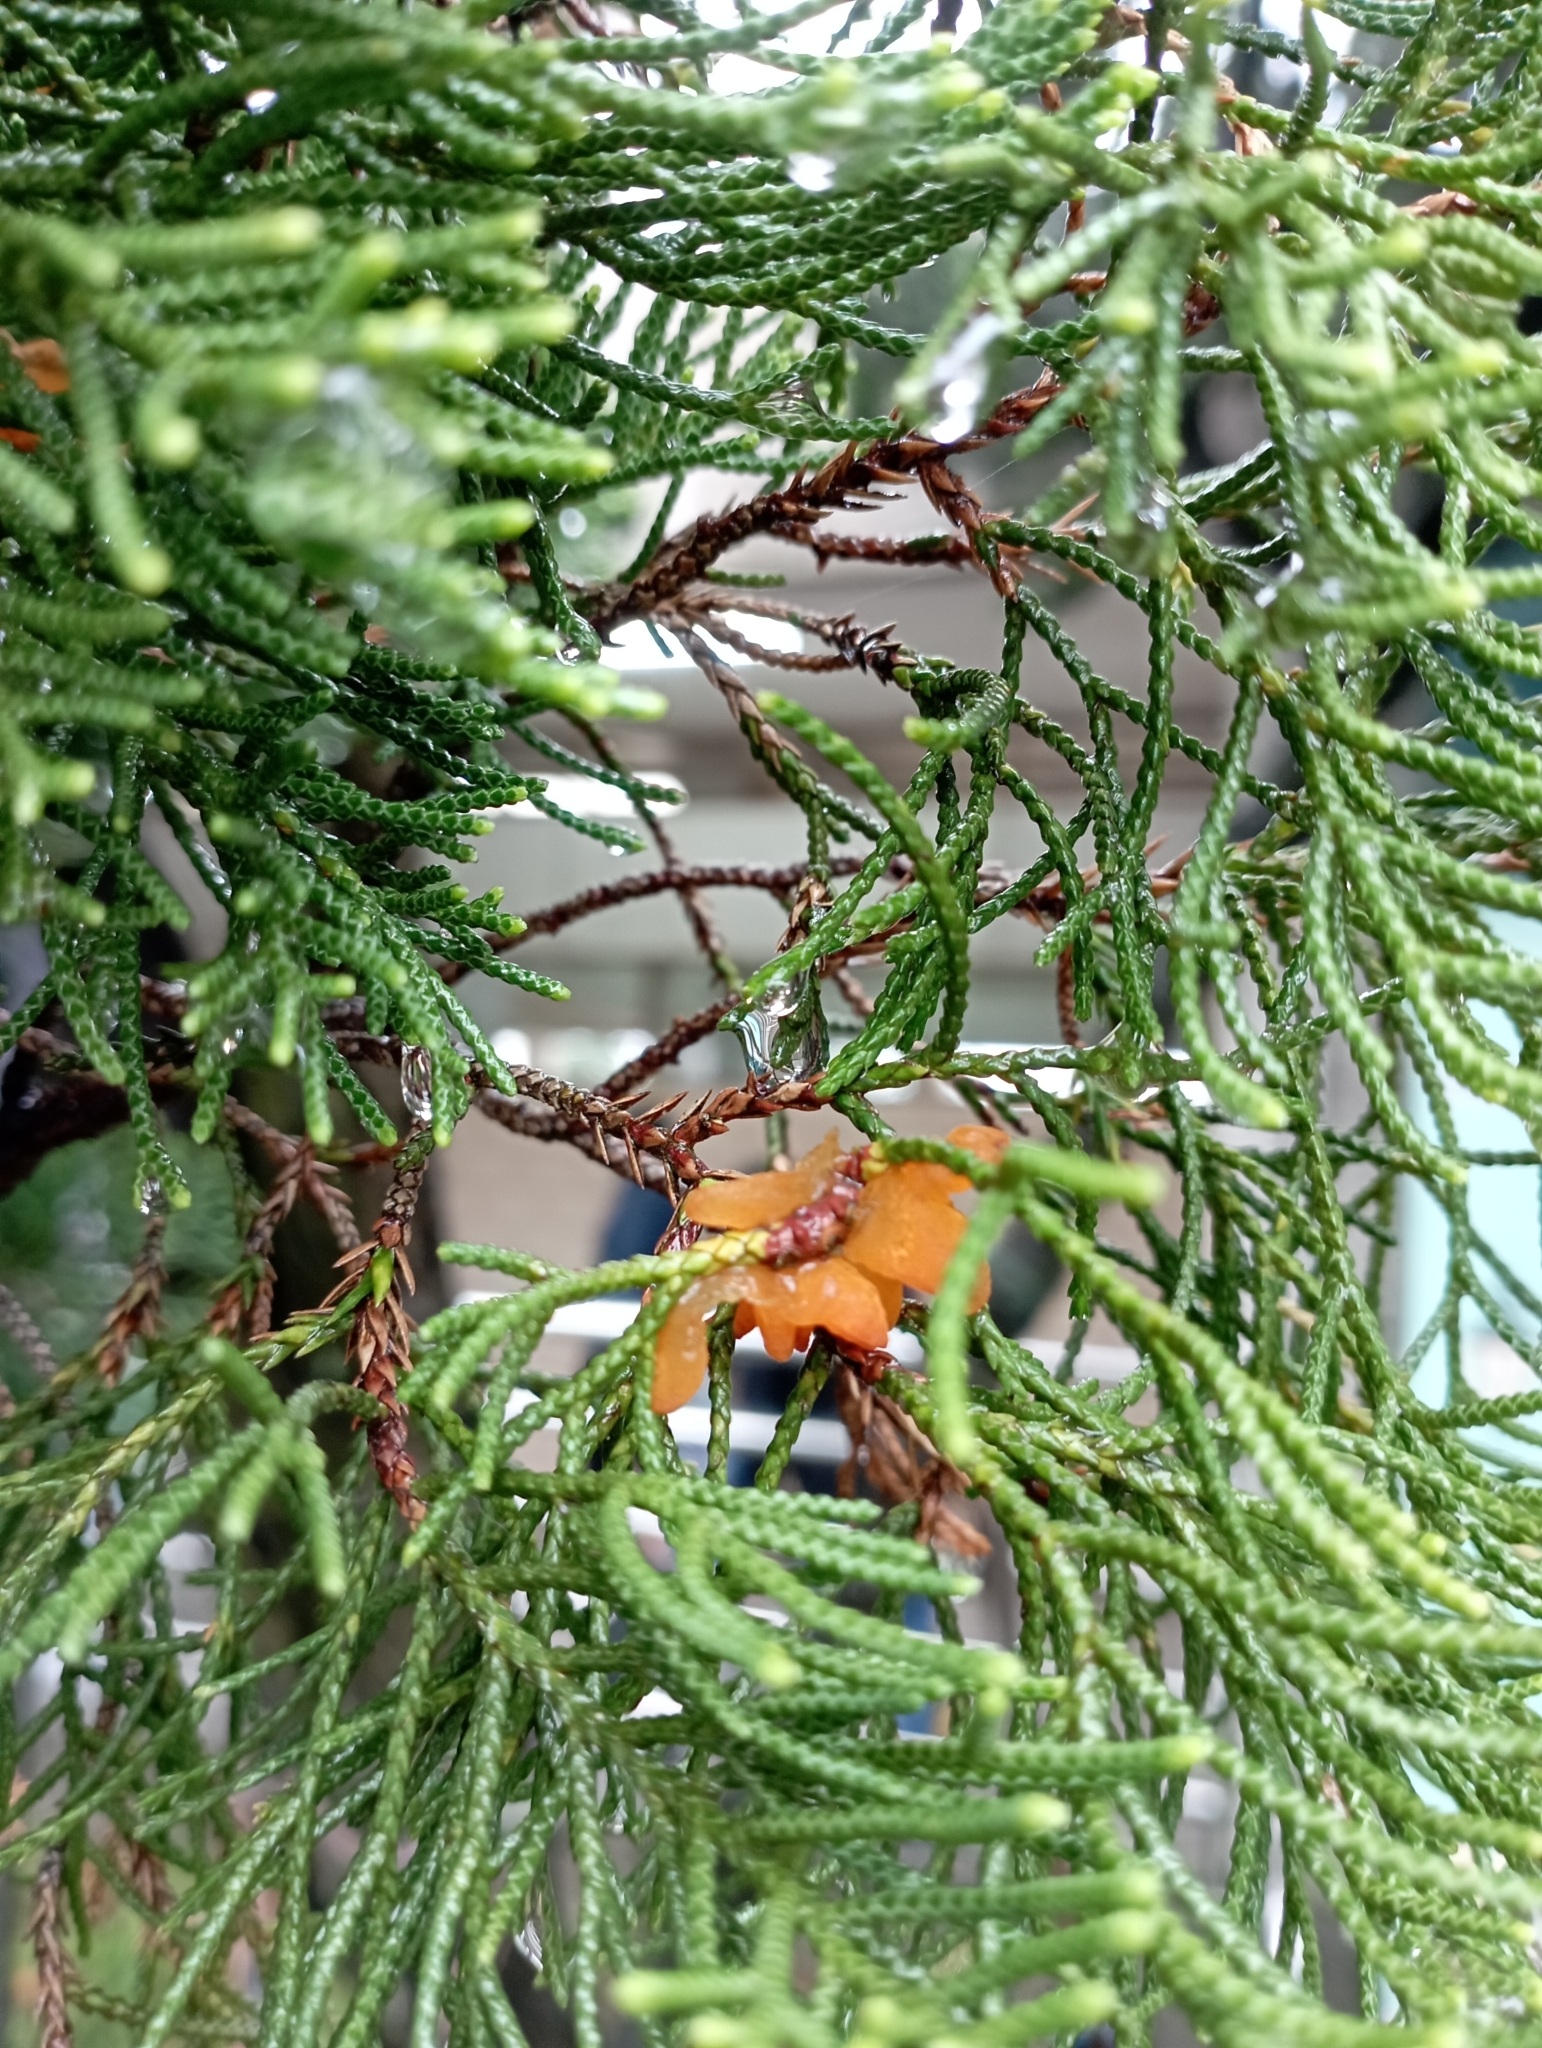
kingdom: Fungi
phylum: Basidiomycota
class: Pucciniomycetes
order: Pucciniales
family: Gymnosporangiaceae
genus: Gymnosporangium
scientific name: Gymnosporangium asiaticum
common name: Japanese pear rust
